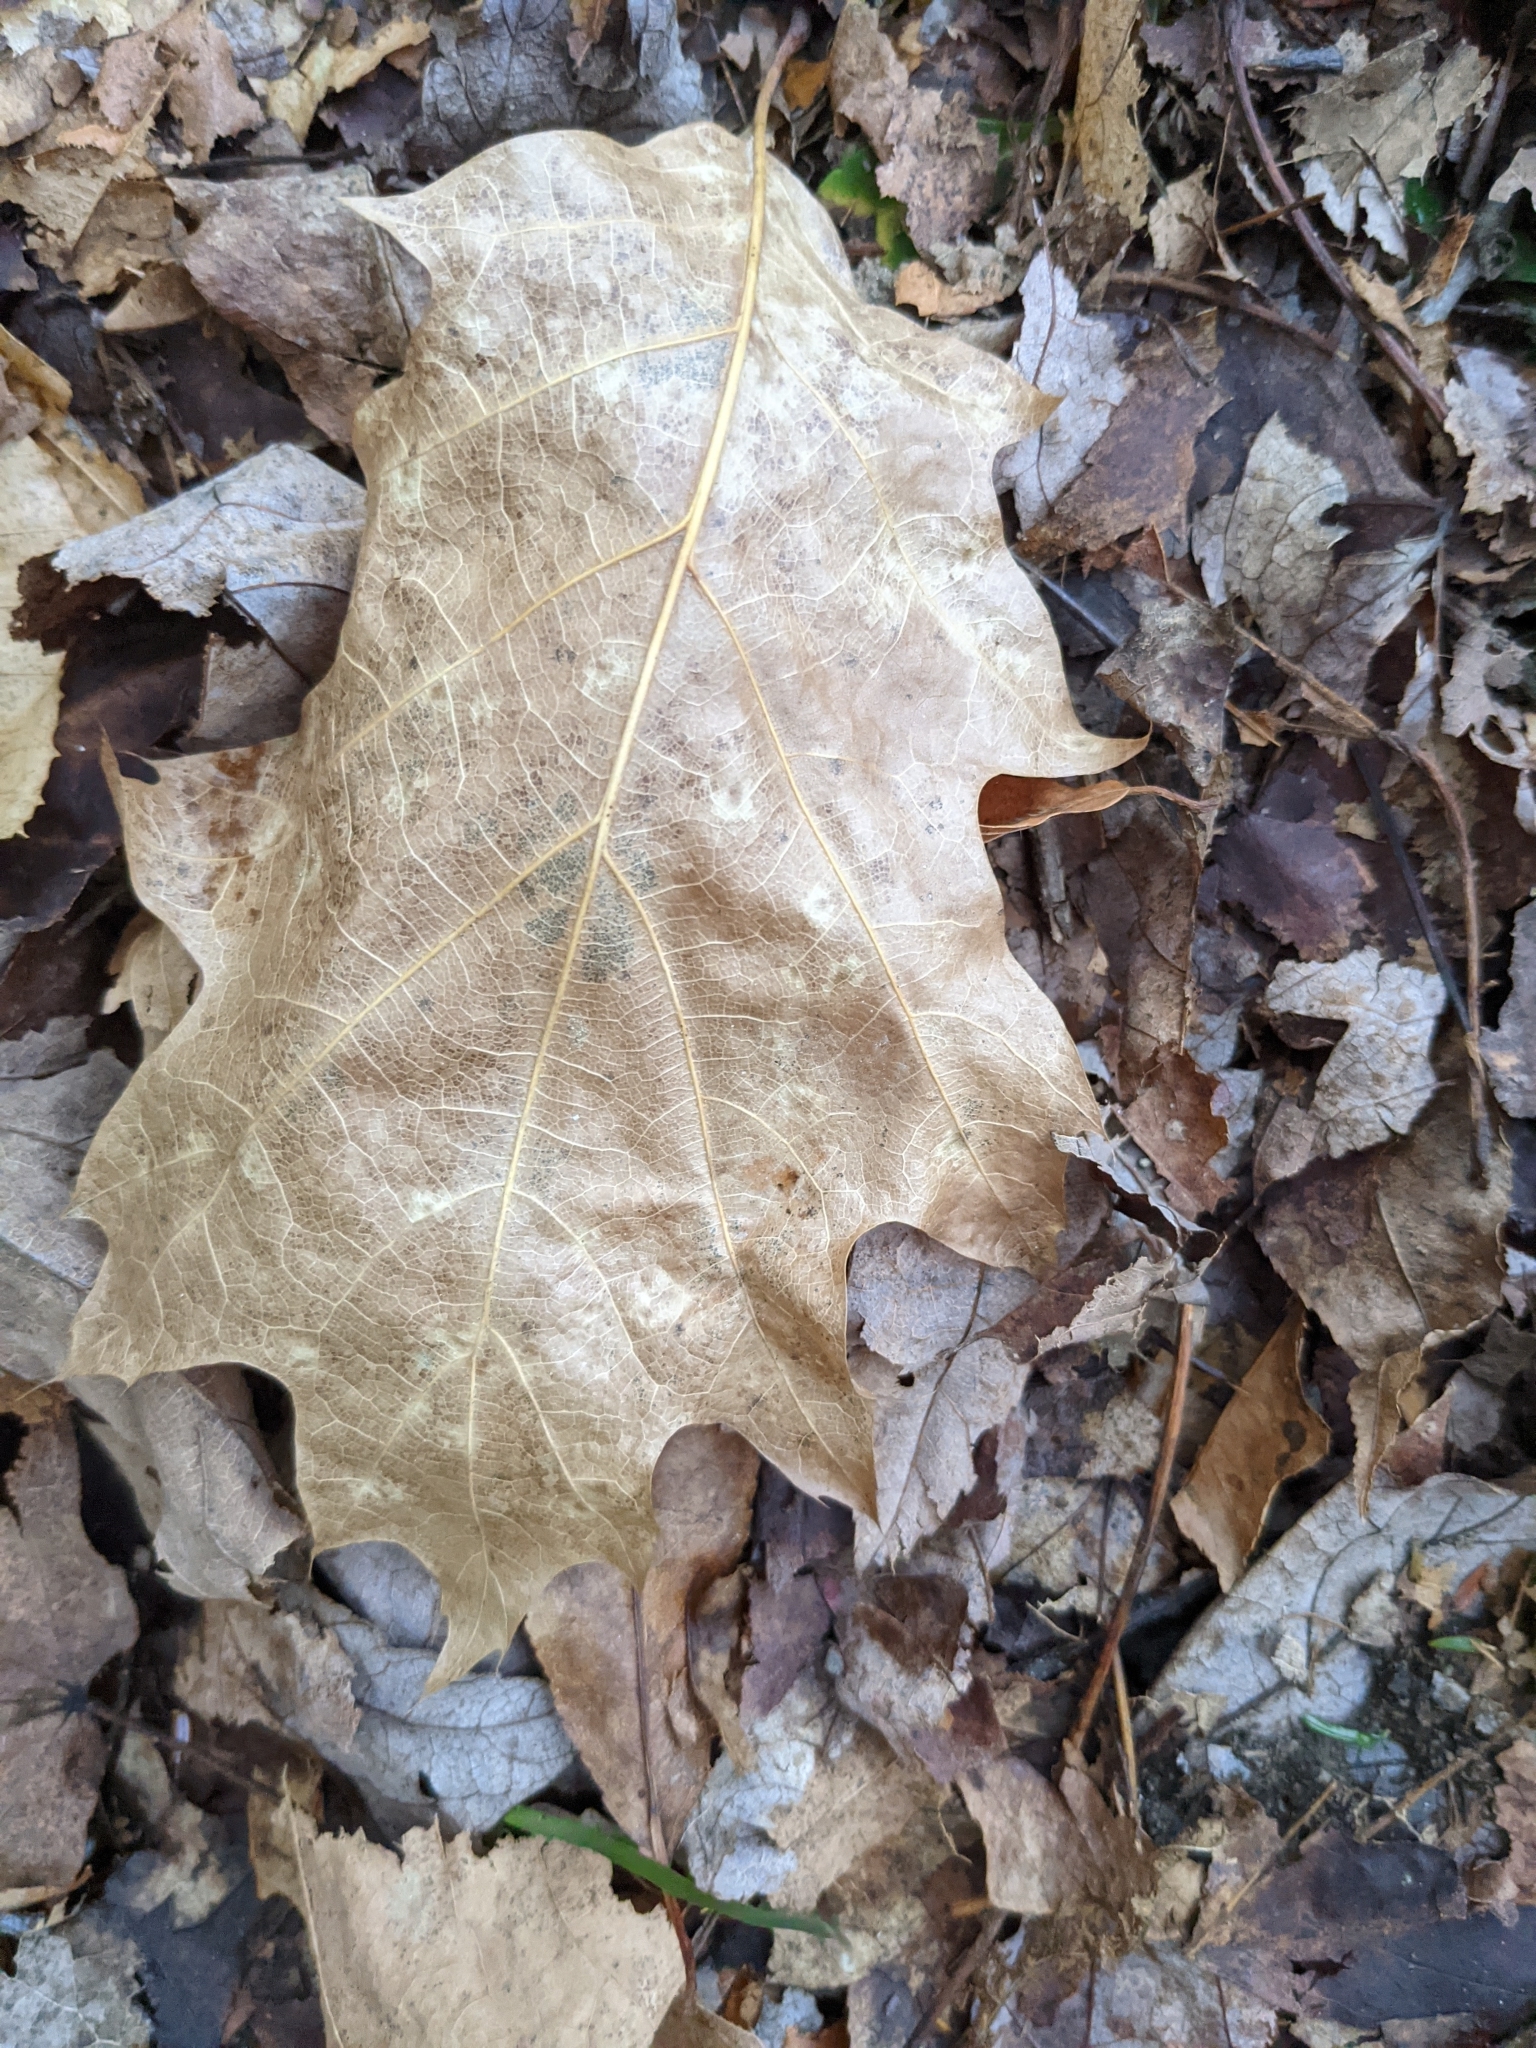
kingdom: Plantae
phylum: Tracheophyta
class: Magnoliopsida
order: Fagales
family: Fagaceae
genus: Quercus
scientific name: Quercus rubra
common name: Red oak
